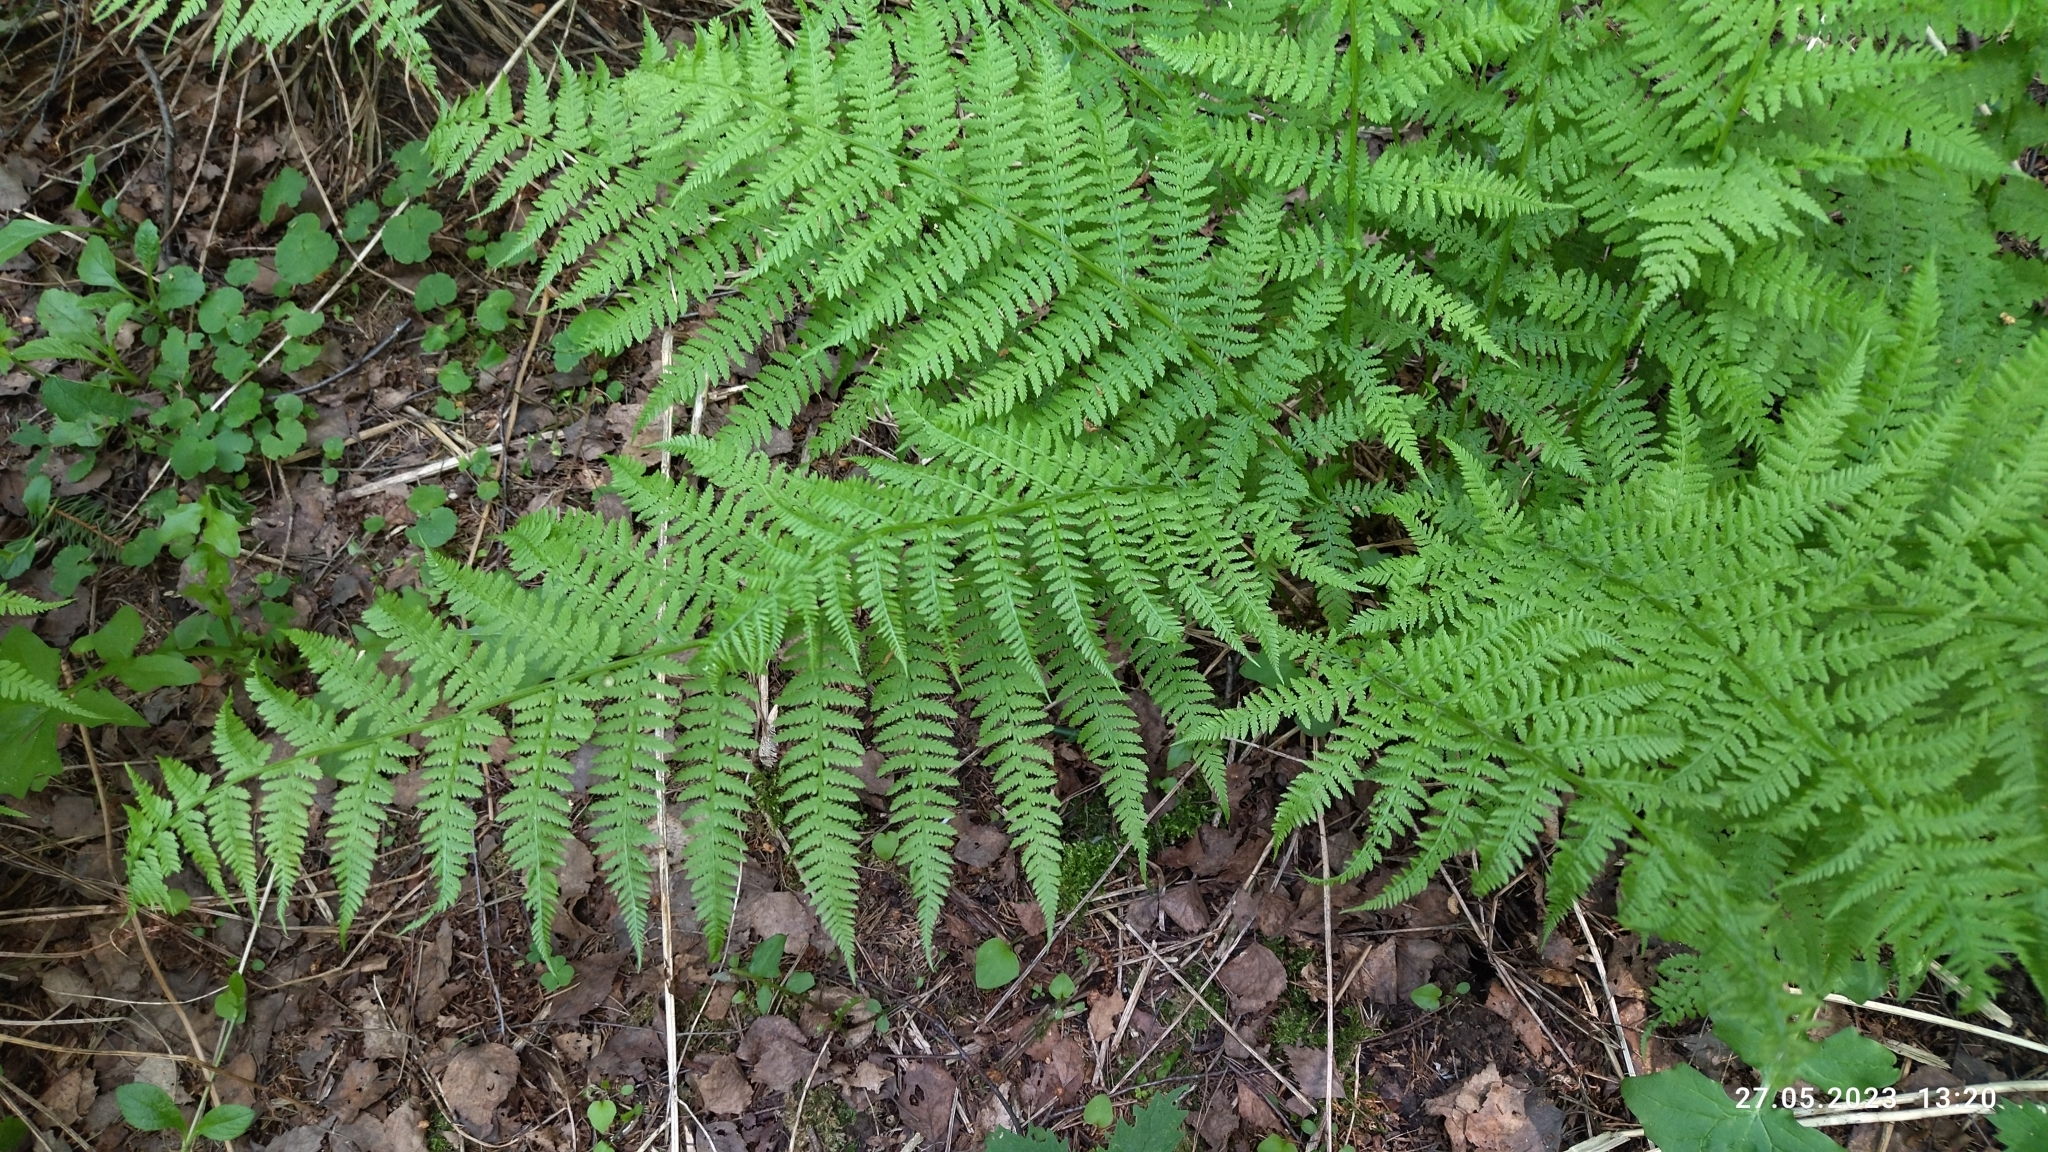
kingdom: Plantae
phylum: Tracheophyta
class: Polypodiopsida
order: Polypodiales
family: Athyriaceae
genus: Athyrium
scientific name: Athyrium filix-femina
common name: Lady fern
